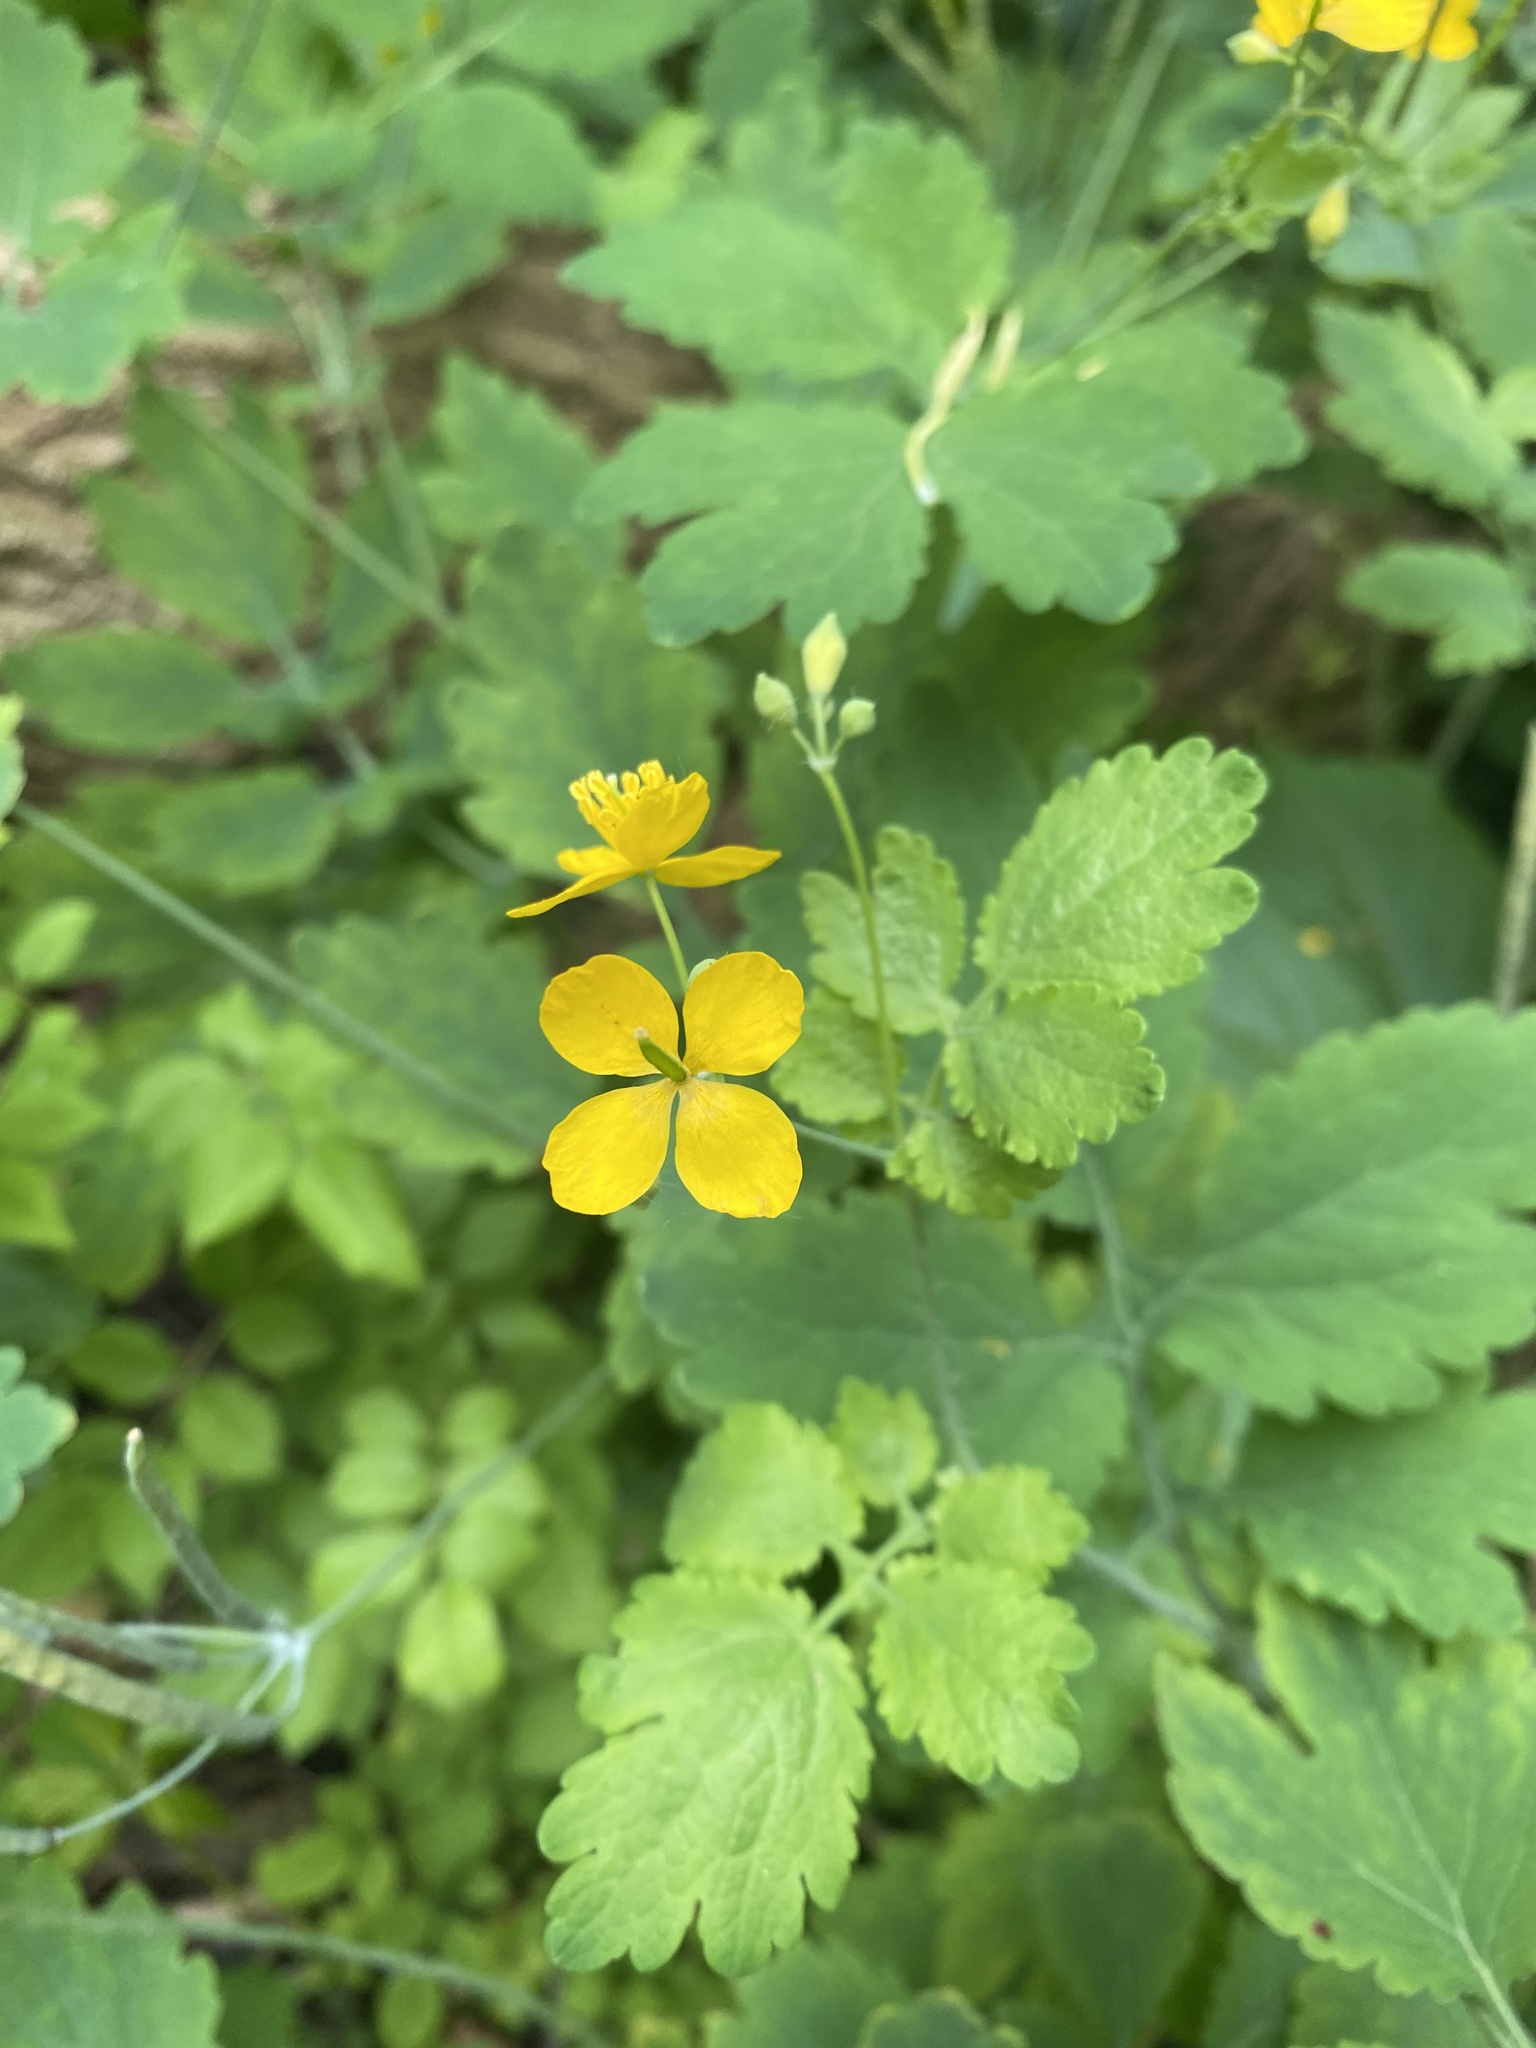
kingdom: Plantae
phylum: Tracheophyta
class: Magnoliopsida
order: Ranunculales
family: Papaveraceae
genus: Chelidonium
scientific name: Chelidonium majus
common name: Greater celandine
